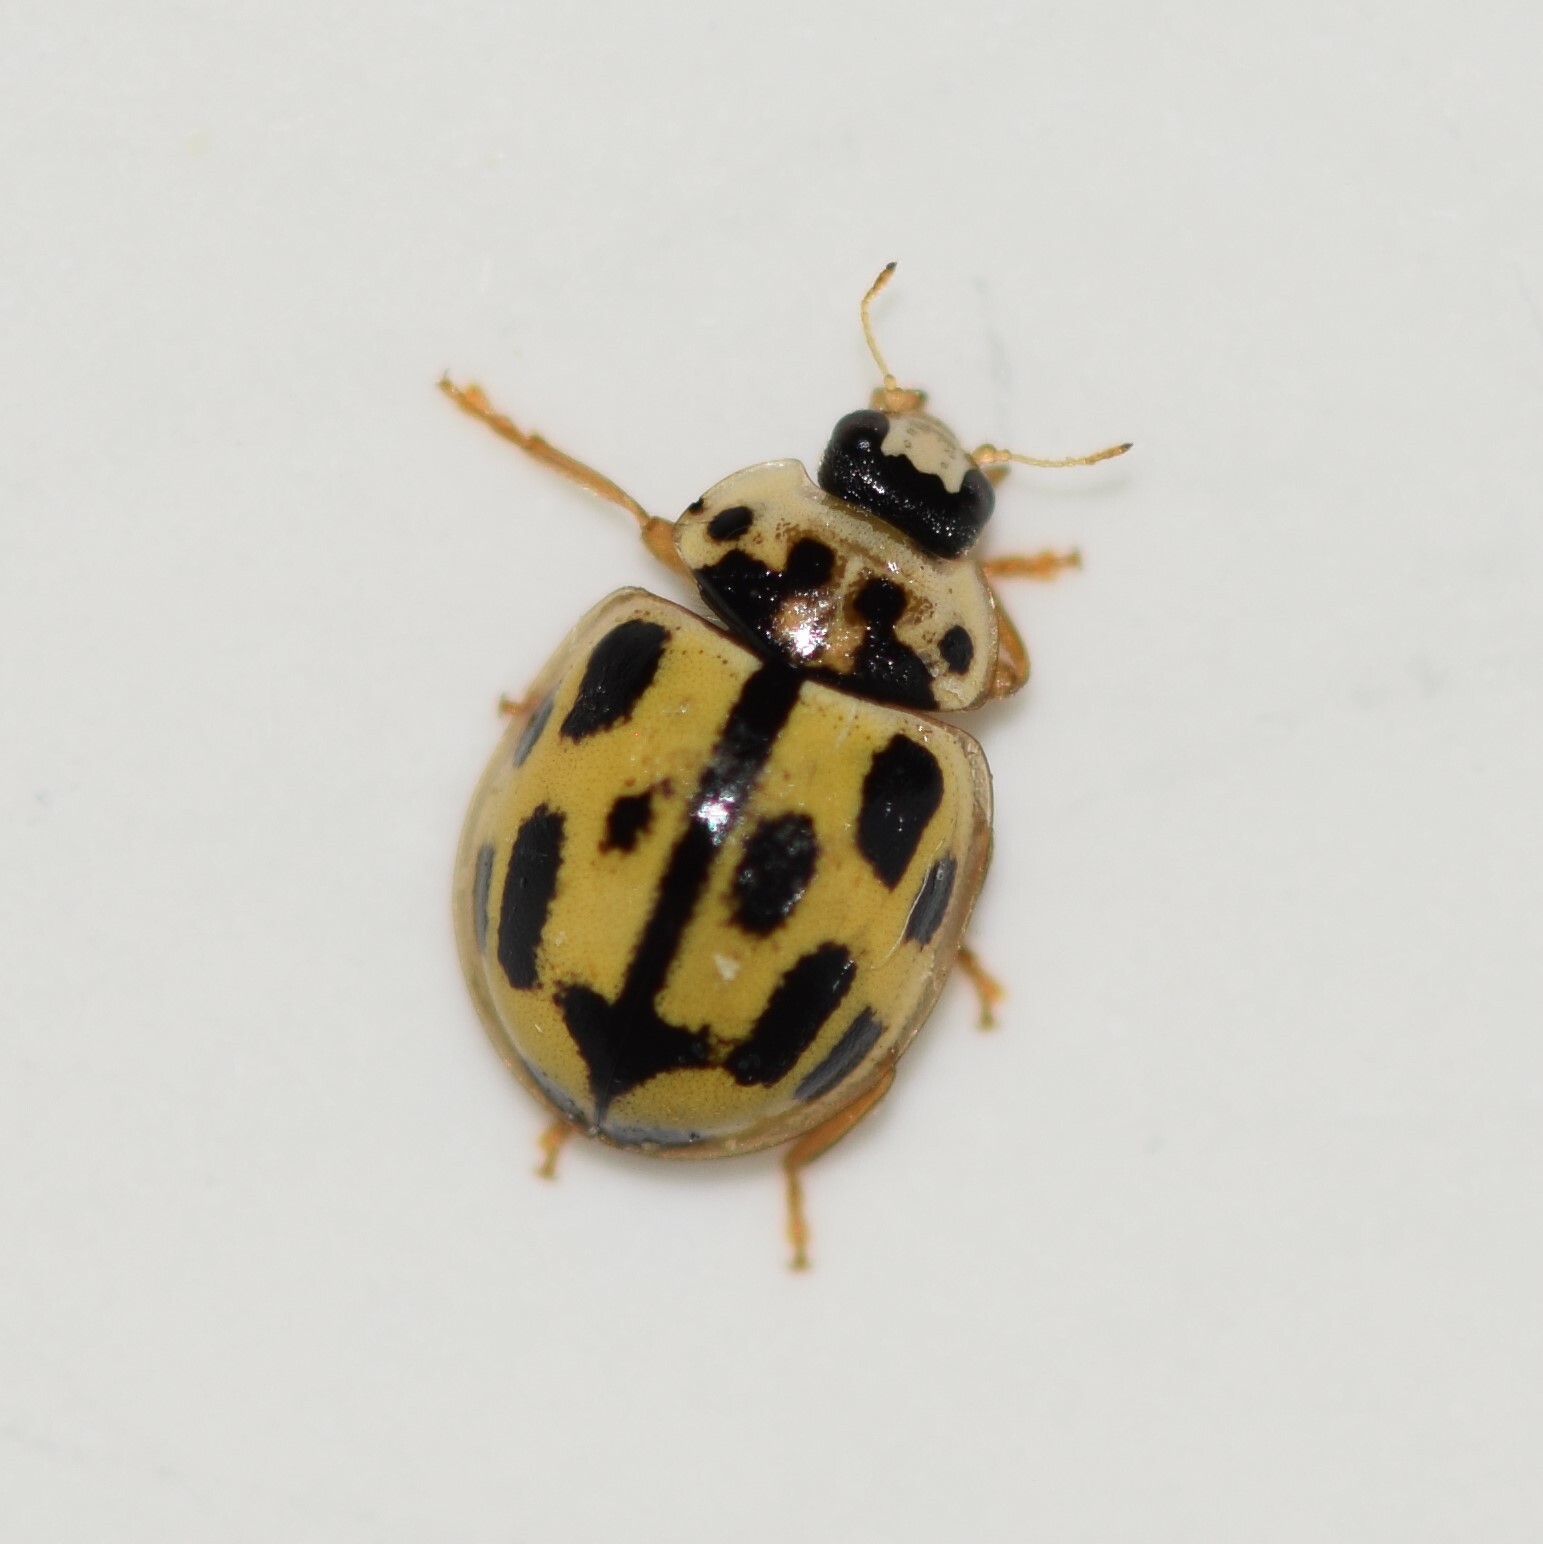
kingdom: Animalia
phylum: Arthropoda
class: Insecta
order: Coleoptera
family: Coccinellidae
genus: Propylaea
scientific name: Propylaea quatuordecimpunctata
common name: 14-spotted ladybird beetle
